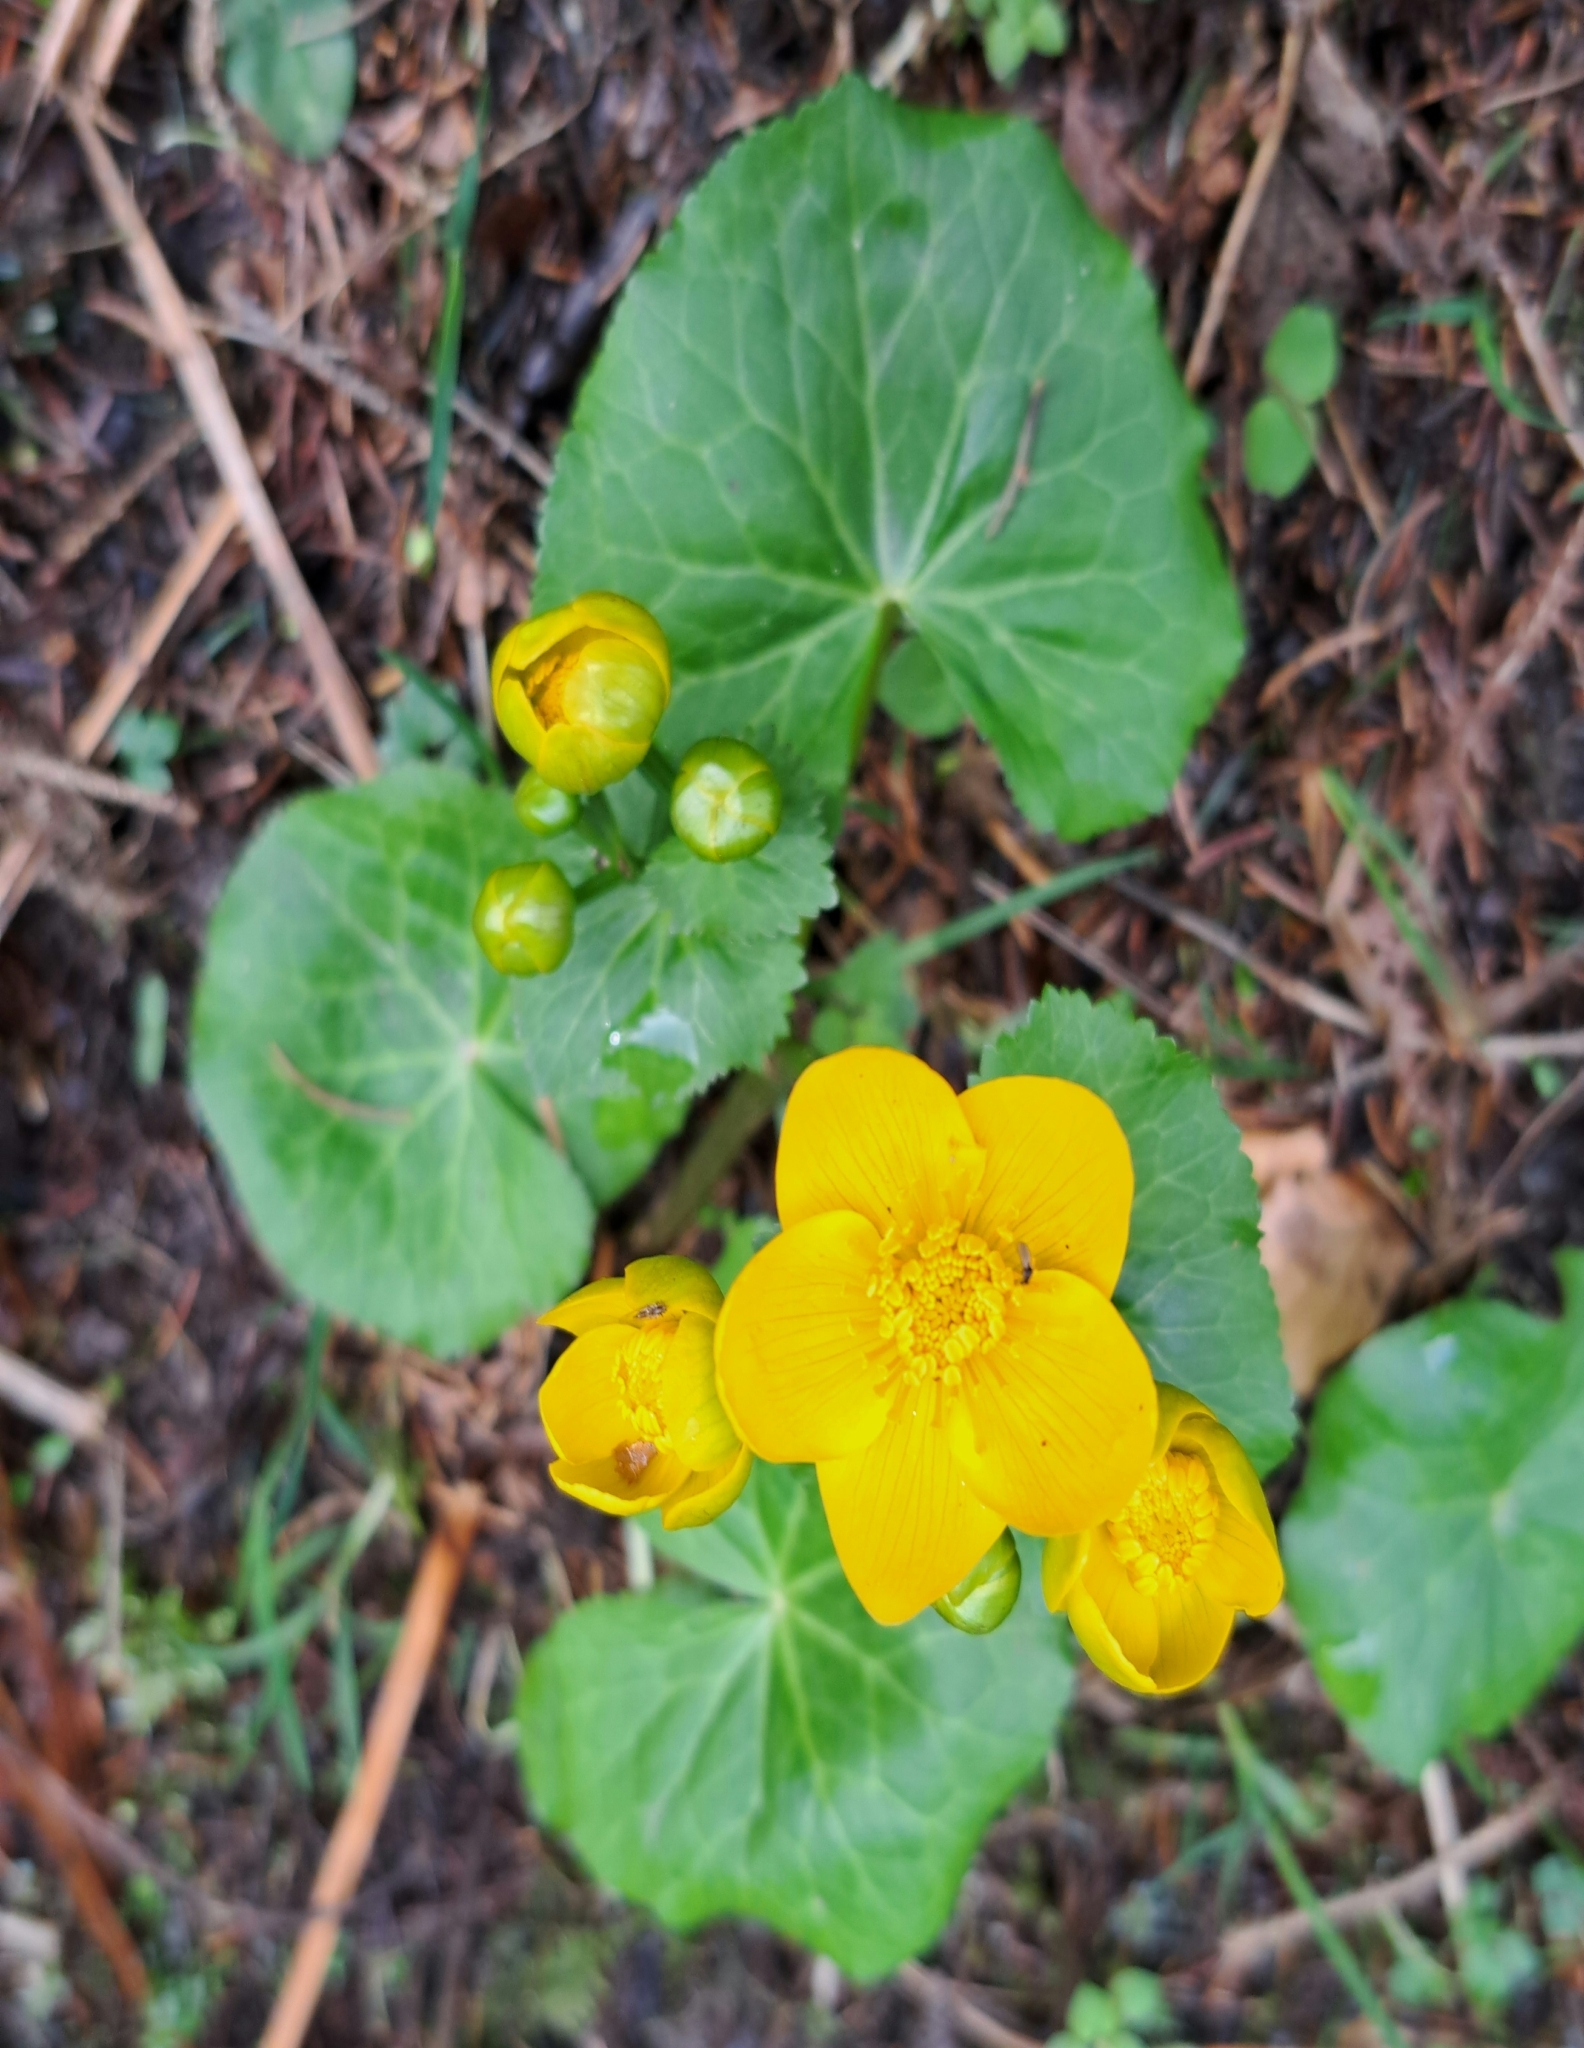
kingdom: Plantae
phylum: Tracheophyta
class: Magnoliopsida
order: Ranunculales
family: Ranunculaceae
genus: Caltha
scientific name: Caltha palustris
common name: Marsh marigold
